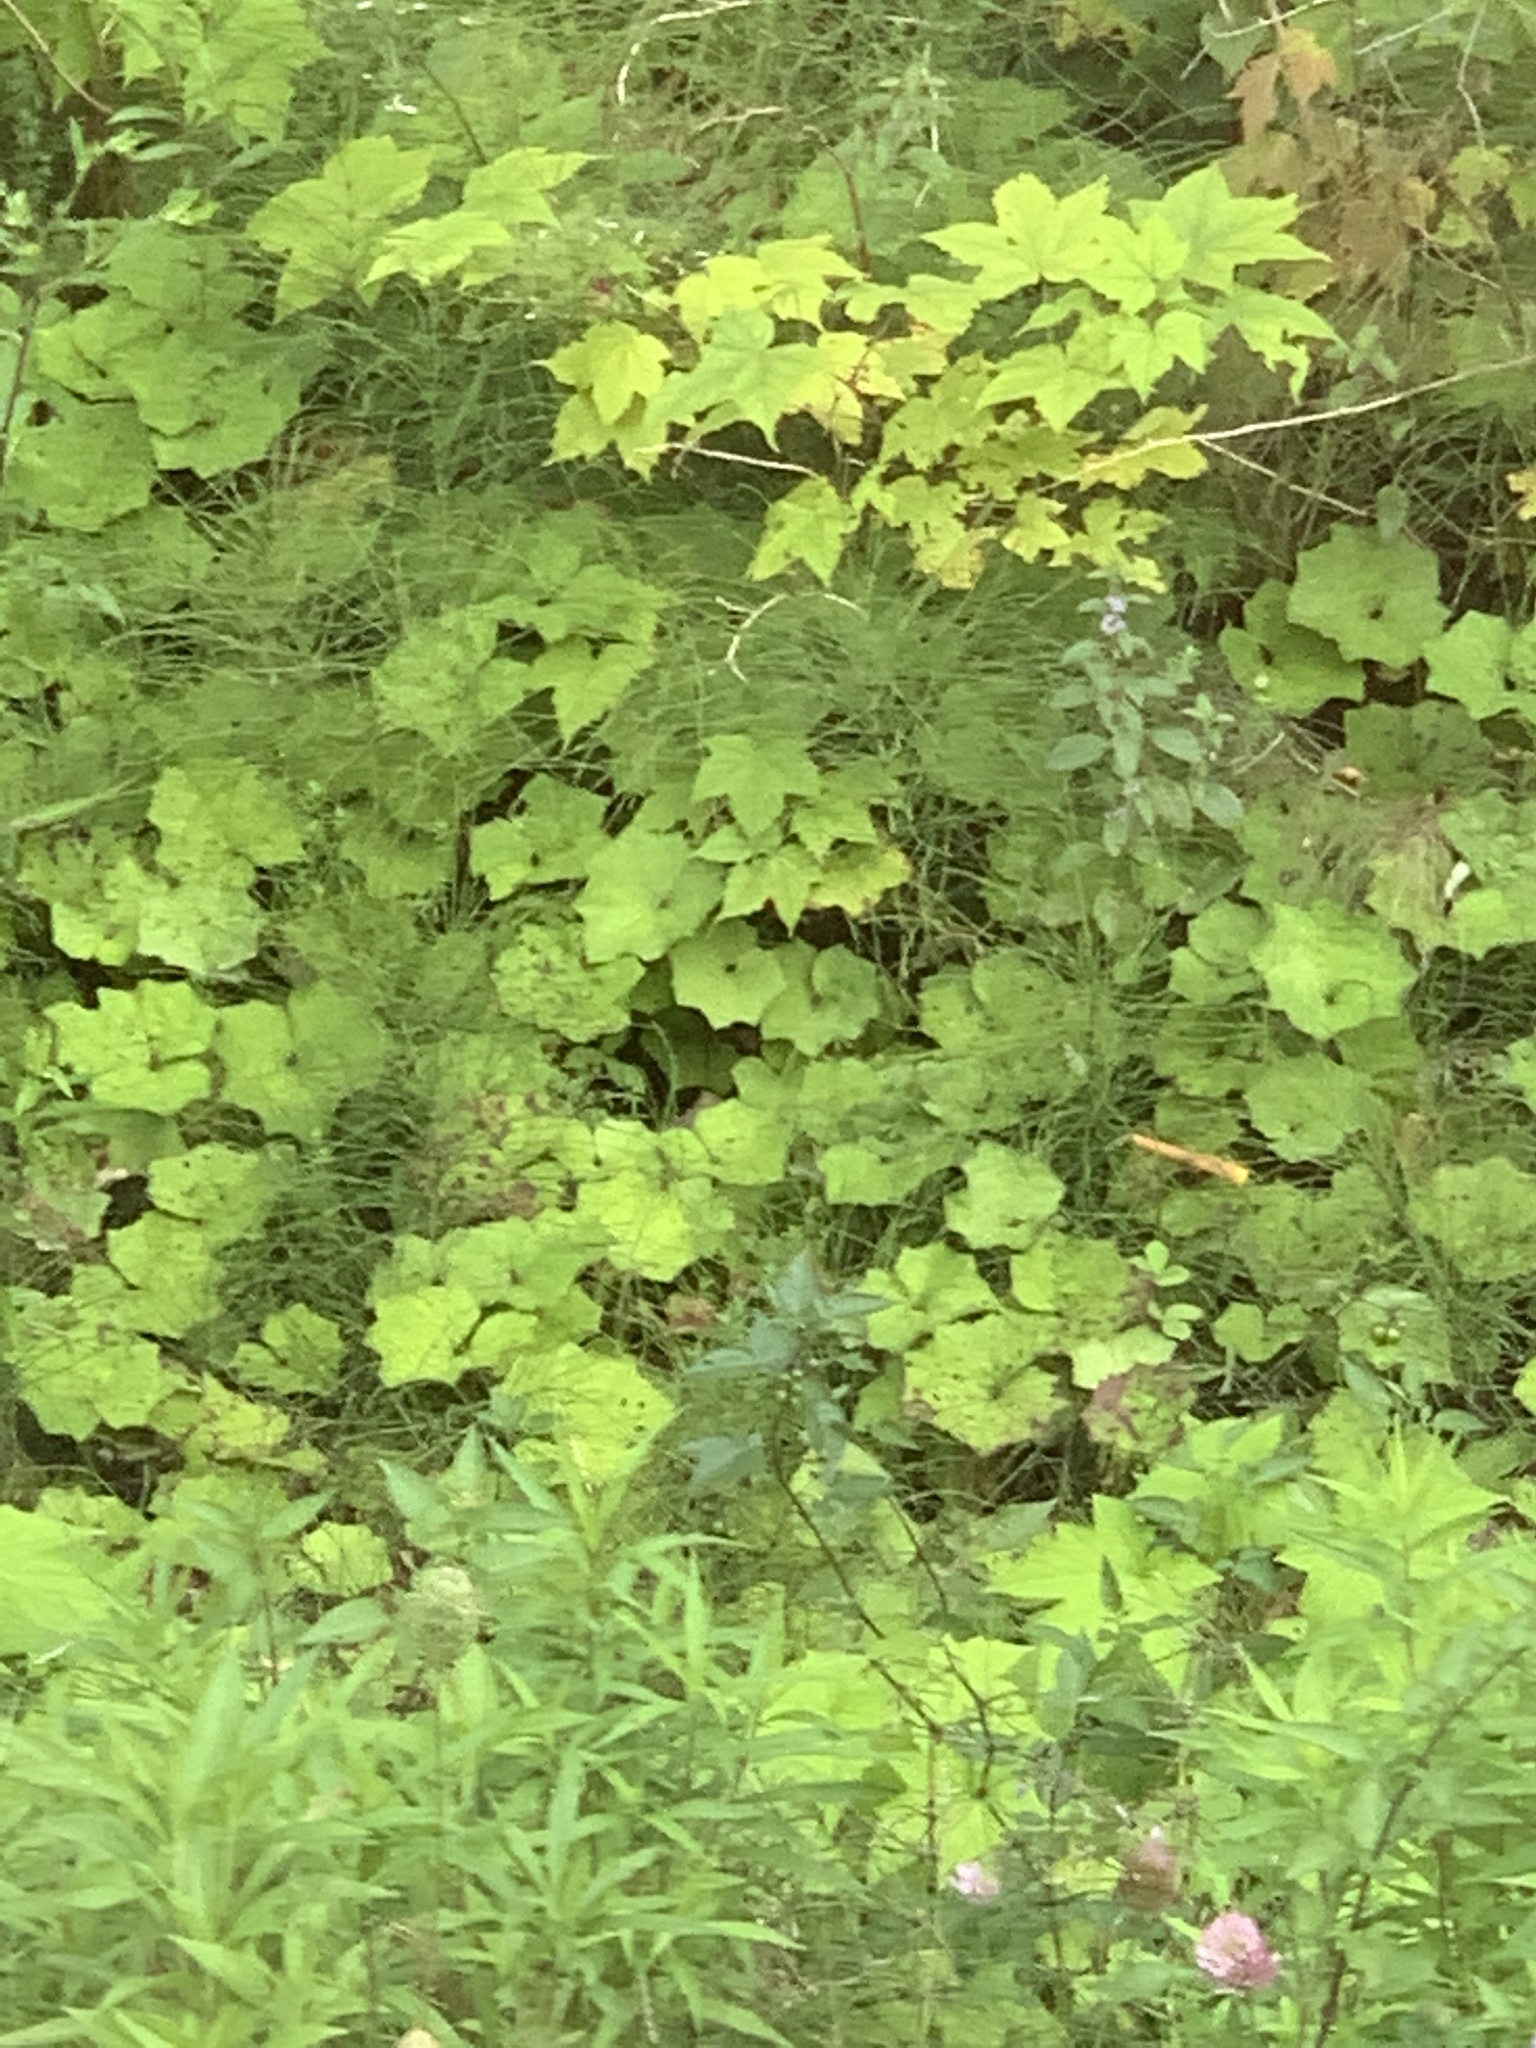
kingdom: Plantae
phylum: Tracheophyta
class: Magnoliopsida
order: Asterales
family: Asteraceae
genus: Tussilago
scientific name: Tussilago farfara
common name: Coltsfoot
